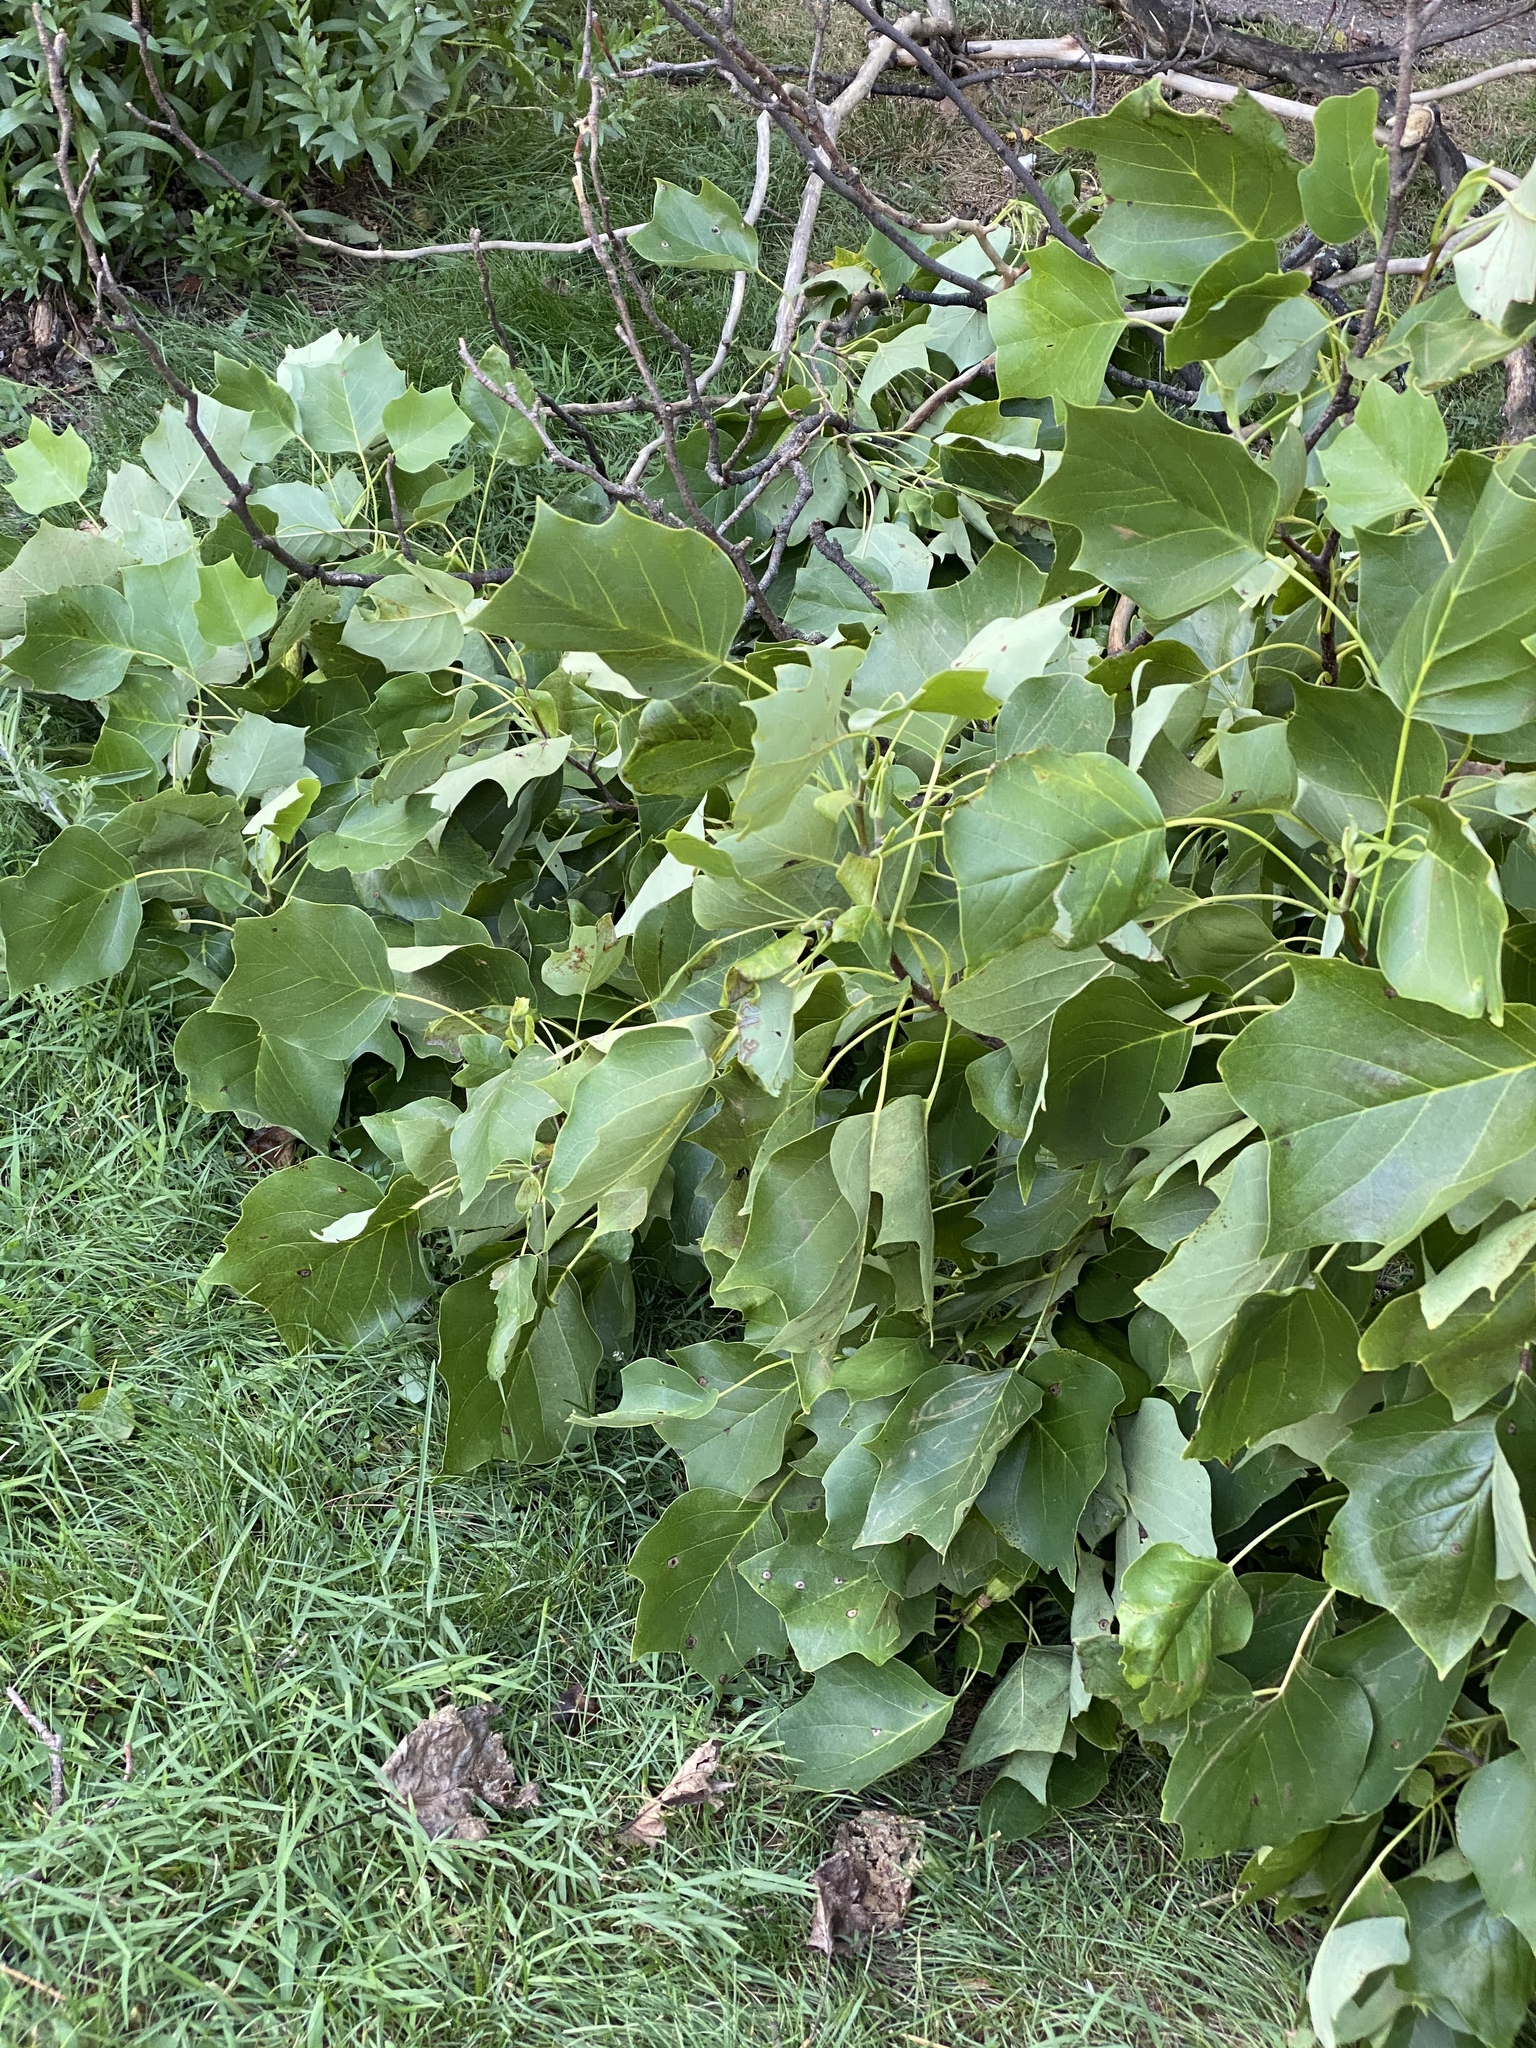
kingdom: Plantae
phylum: Tracheophyta
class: Magnoliopsida
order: Magnoliales
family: Magnoliaceae
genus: Liriodendron
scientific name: Liriodendron tulipifera
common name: Tulip tree
